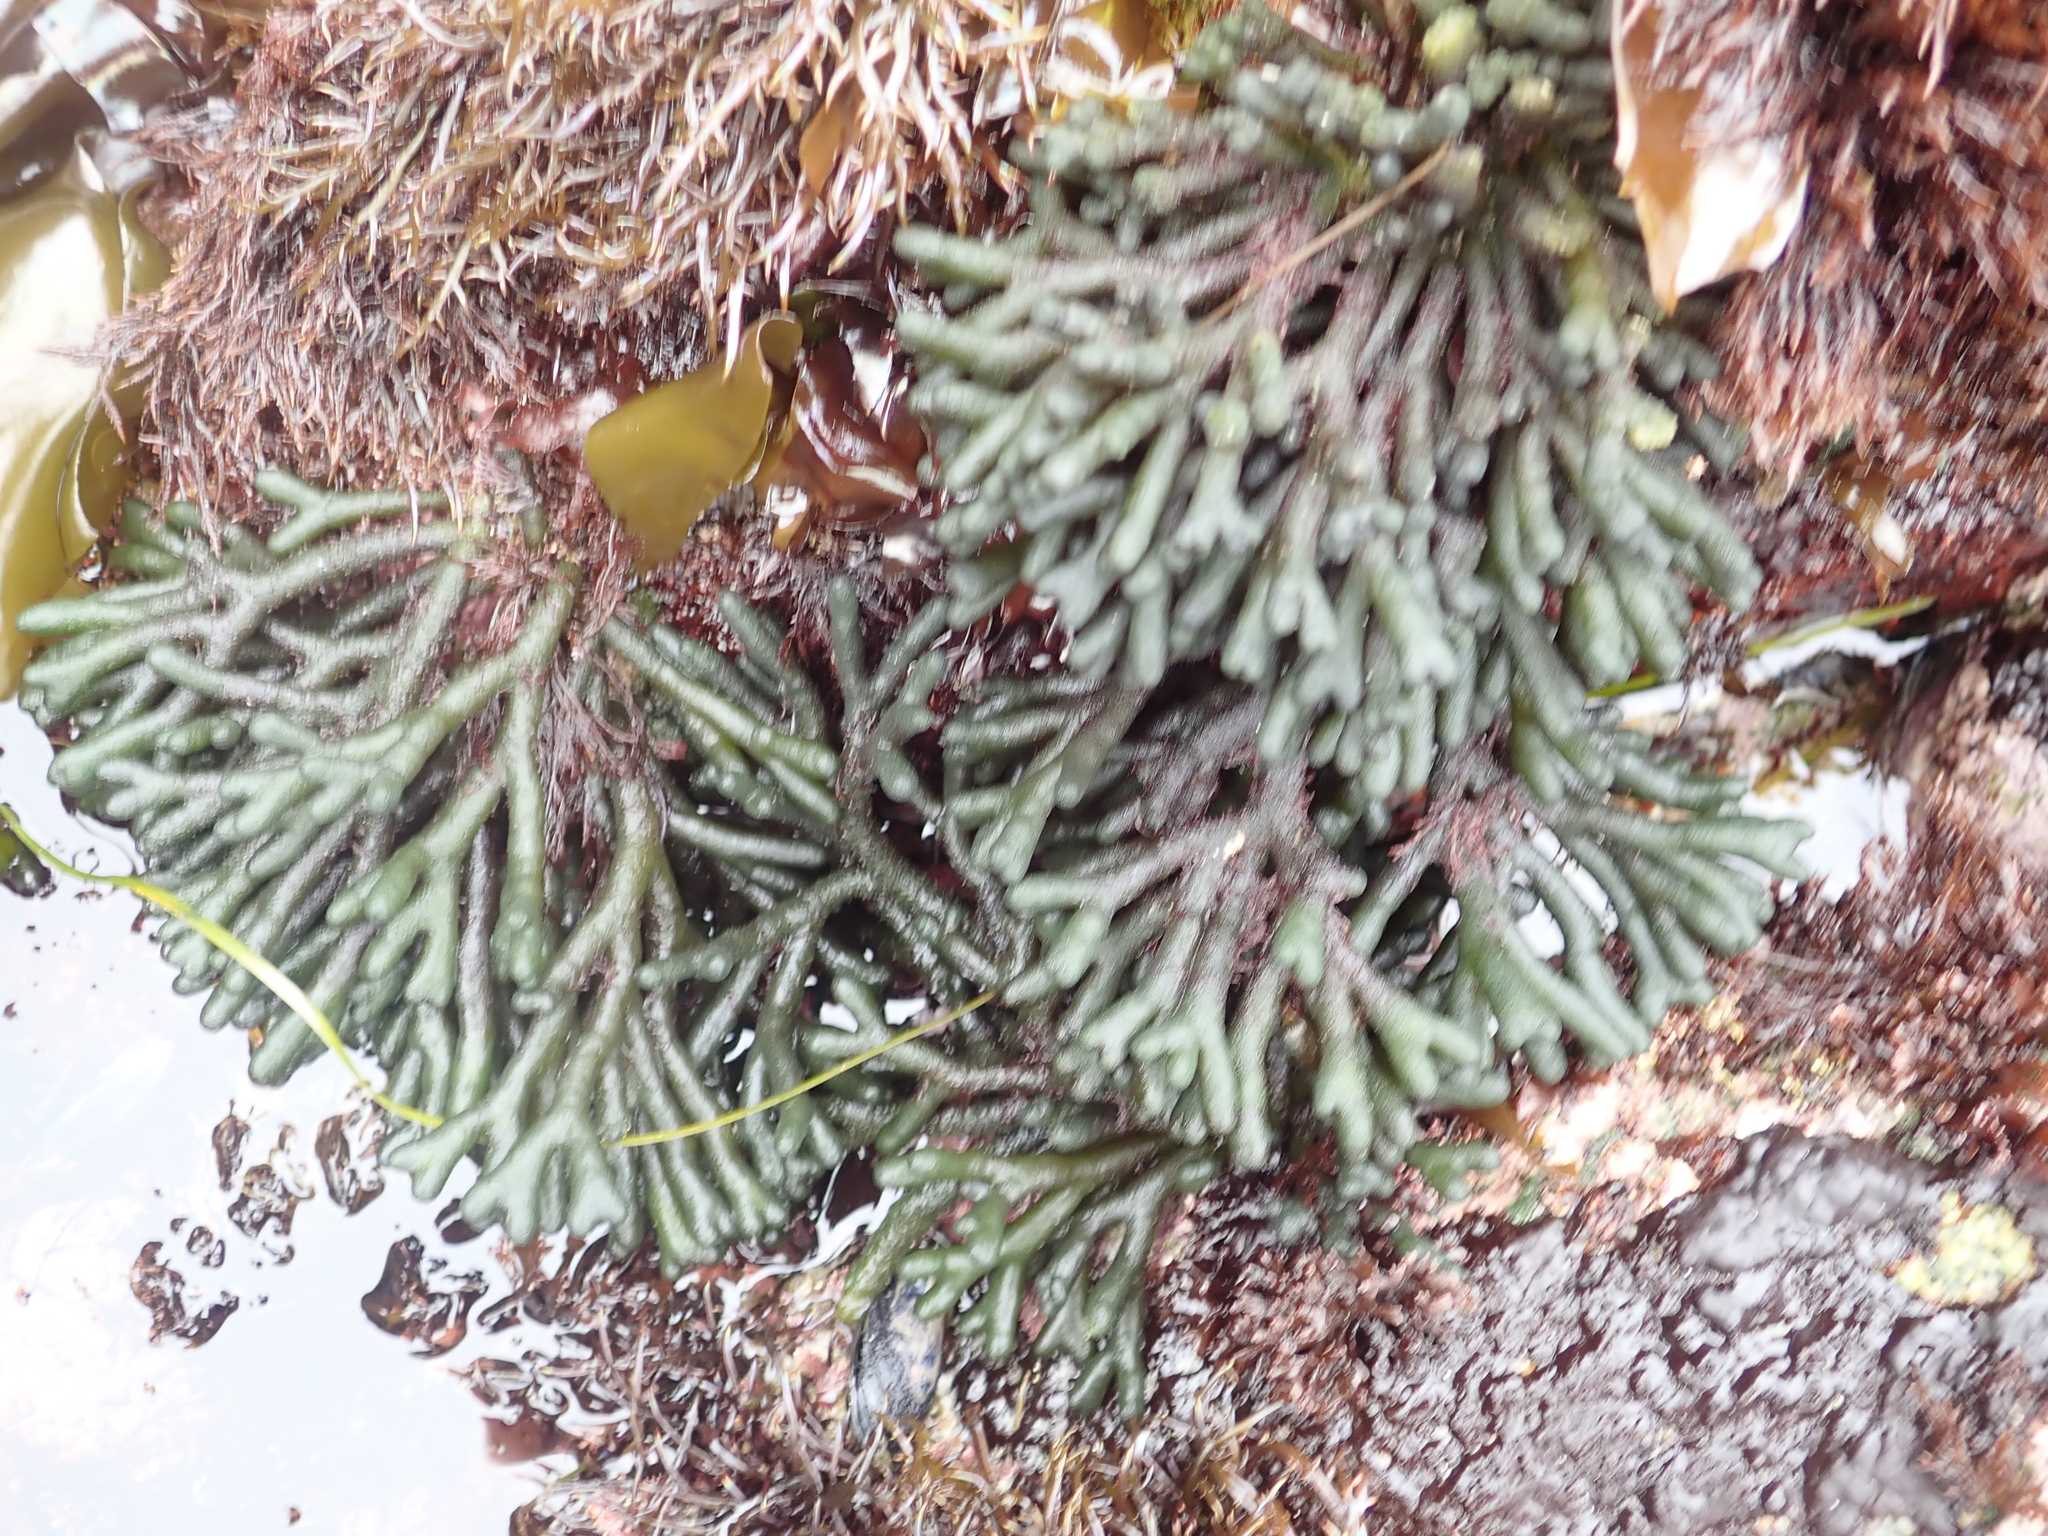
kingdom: Plantae
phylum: Chlorophyta
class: Ulvophyceae
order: Bryopsidales
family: Codiaceae
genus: Codium
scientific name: Codium fragile
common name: Dead man's fingers
